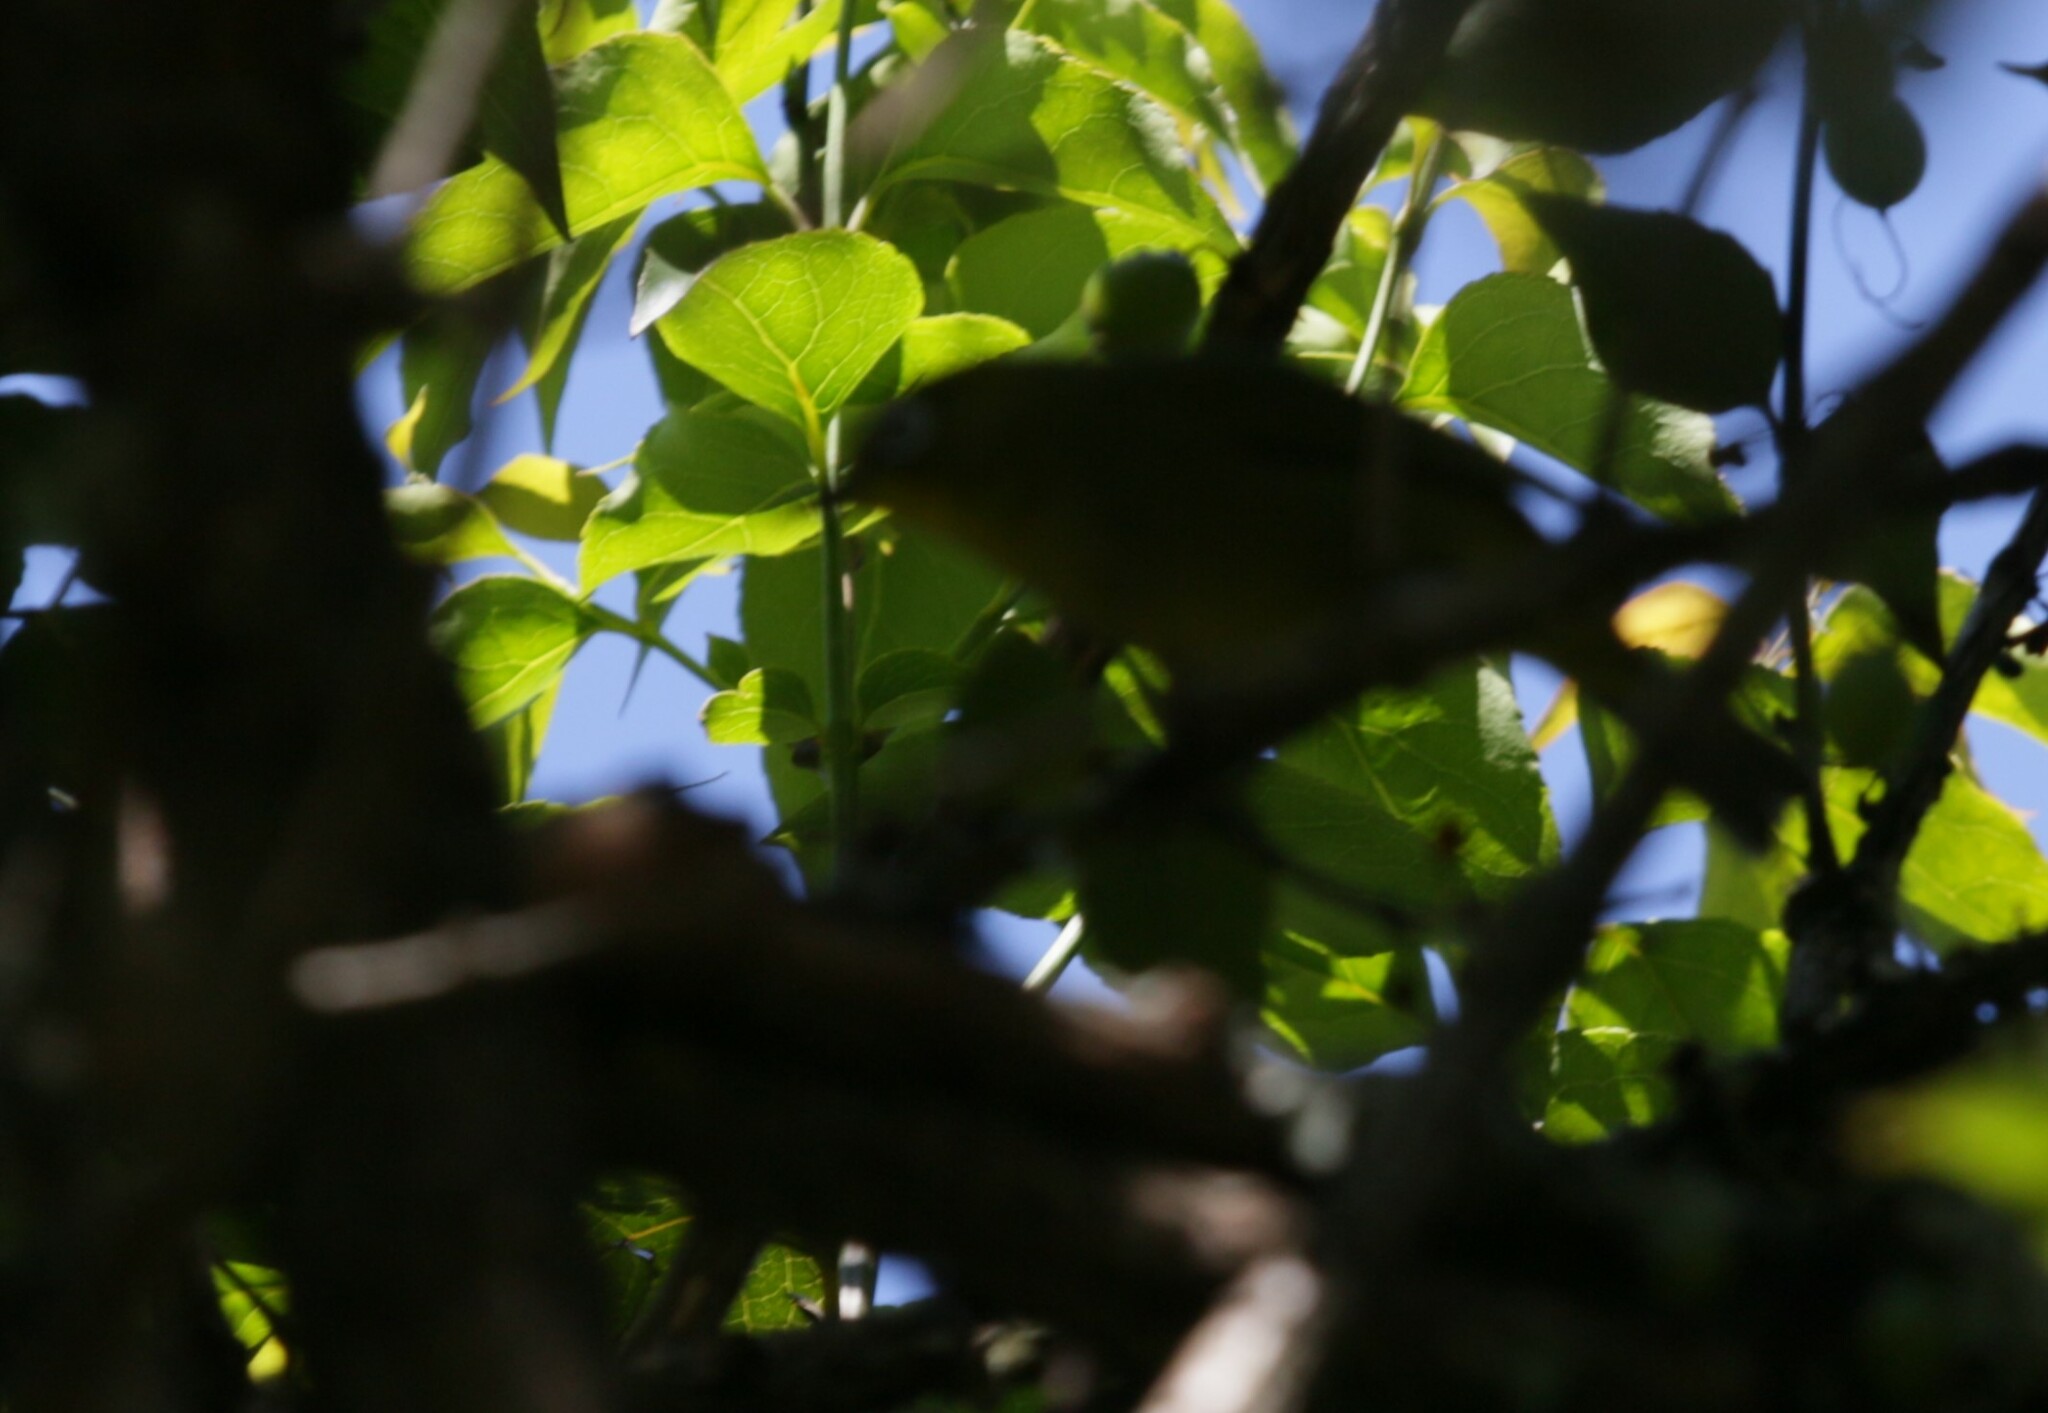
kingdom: Animalia
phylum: Chordata
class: Aves
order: Passeriformes
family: Zosteropidae
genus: Zosterops
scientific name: Zosterops virens
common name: Cape white-eye
